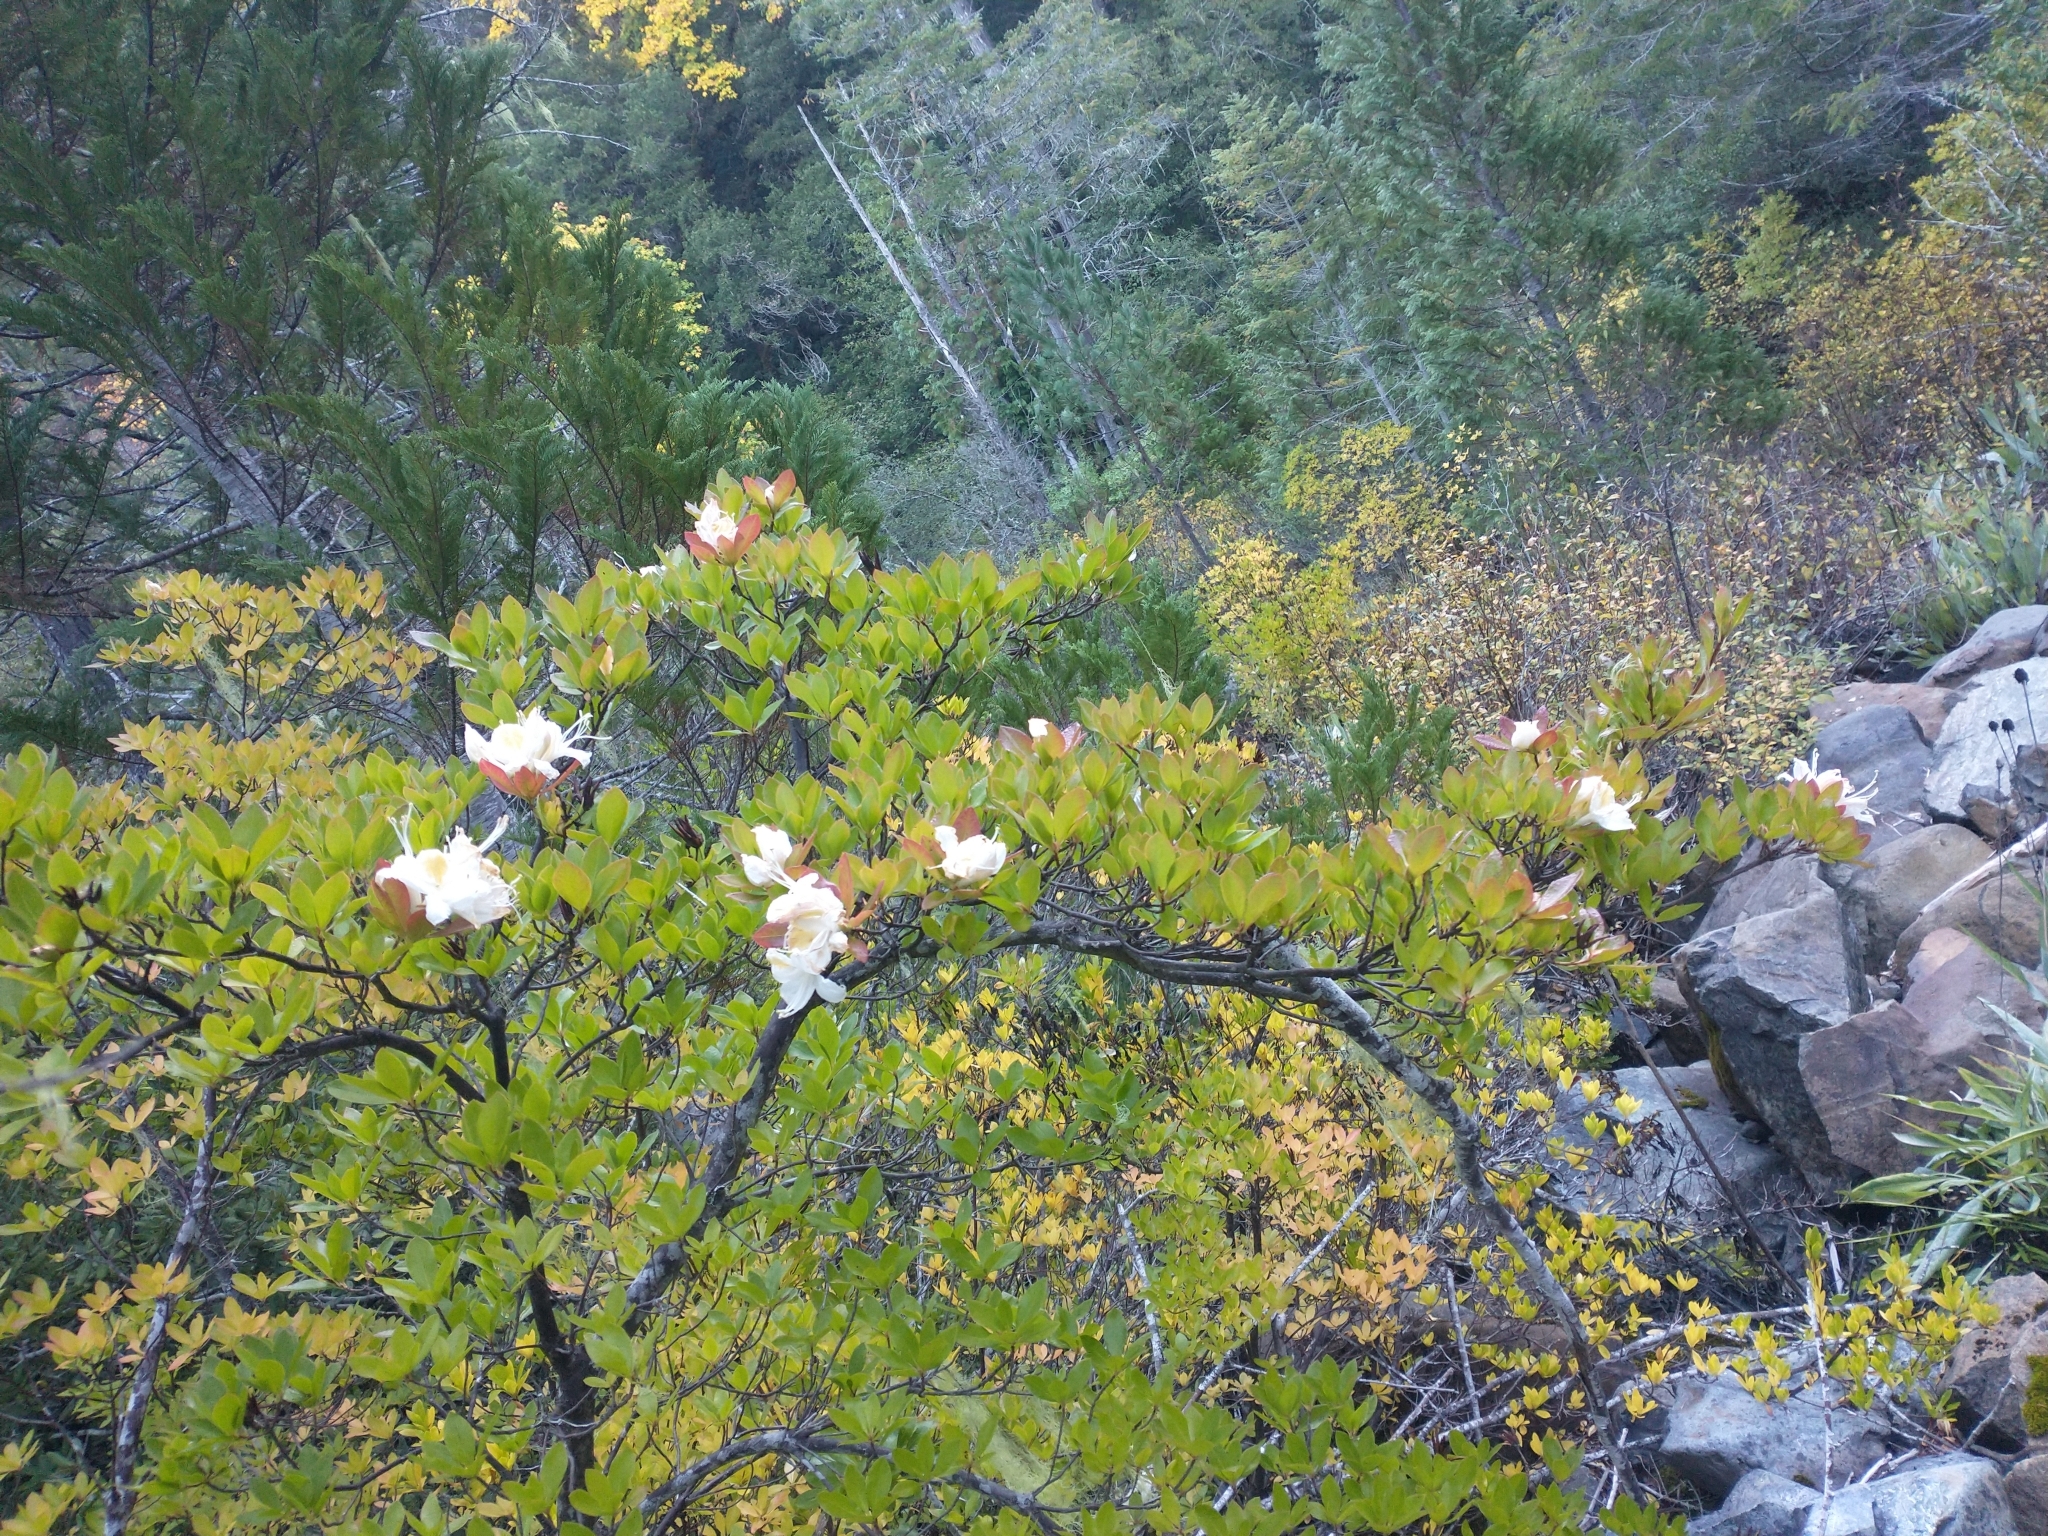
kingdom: Plantae
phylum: Tracheophyta
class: Magnoliopsida
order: Ericales
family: Ericaceae
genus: Rhododendron
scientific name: Rhododendron occidentale
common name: Western azalea
